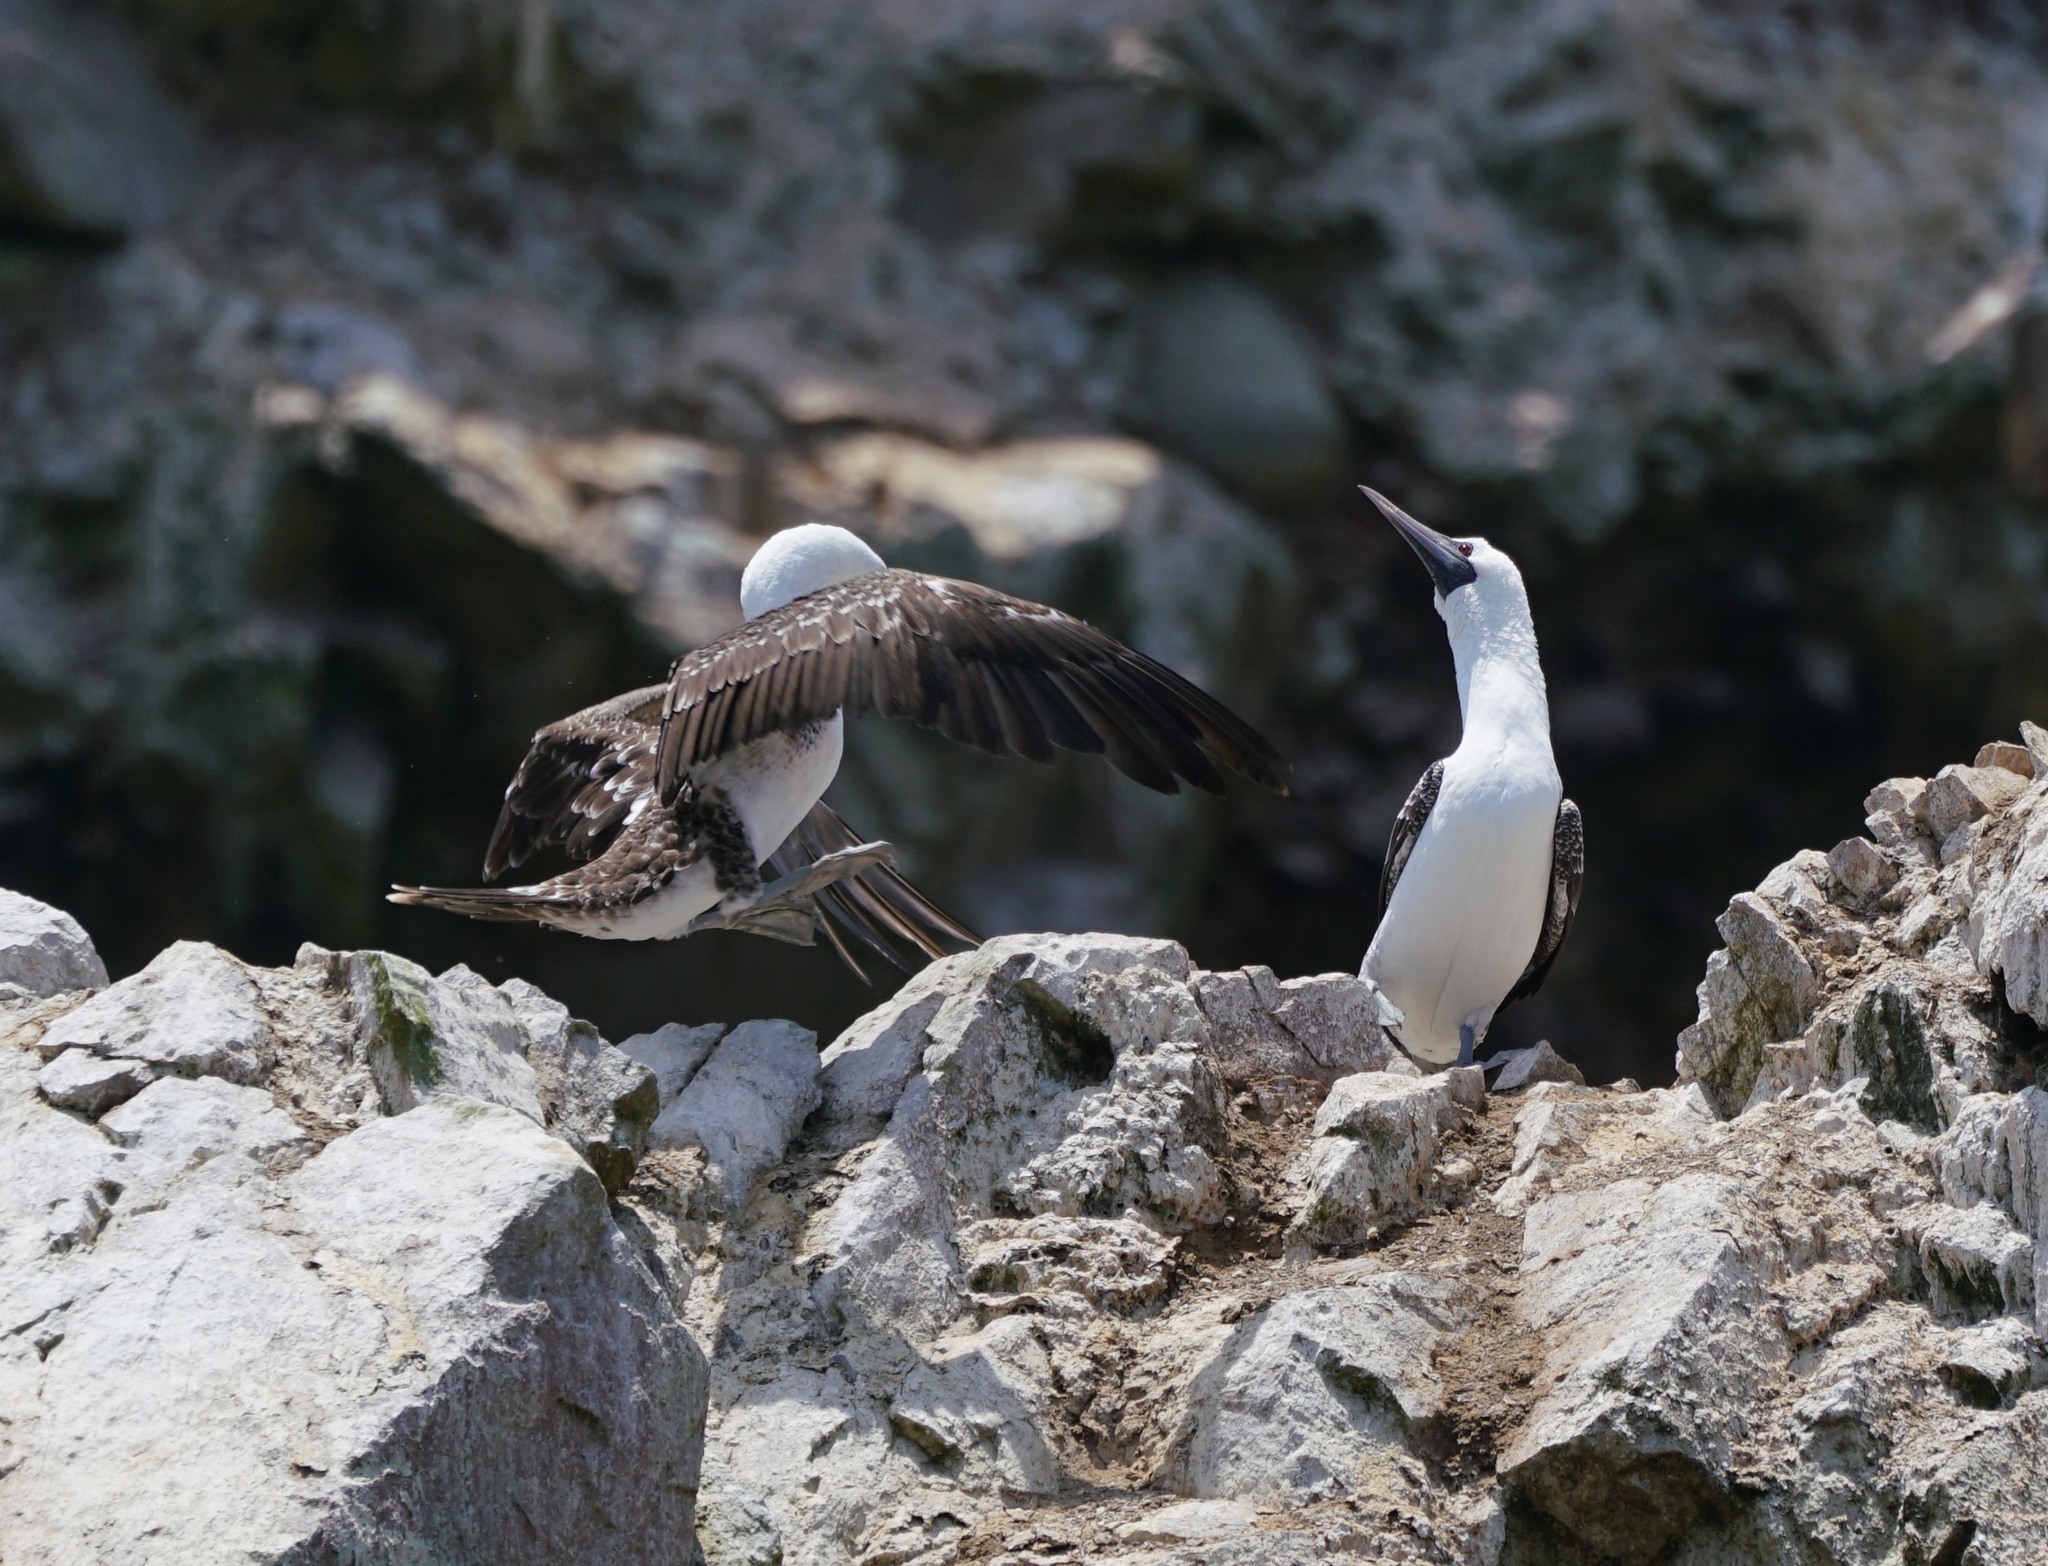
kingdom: Animalia
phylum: Chordata
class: Aves
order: Suliformes
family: Sulidae
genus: Sula
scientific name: Sula variegata
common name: Peruvian booby
